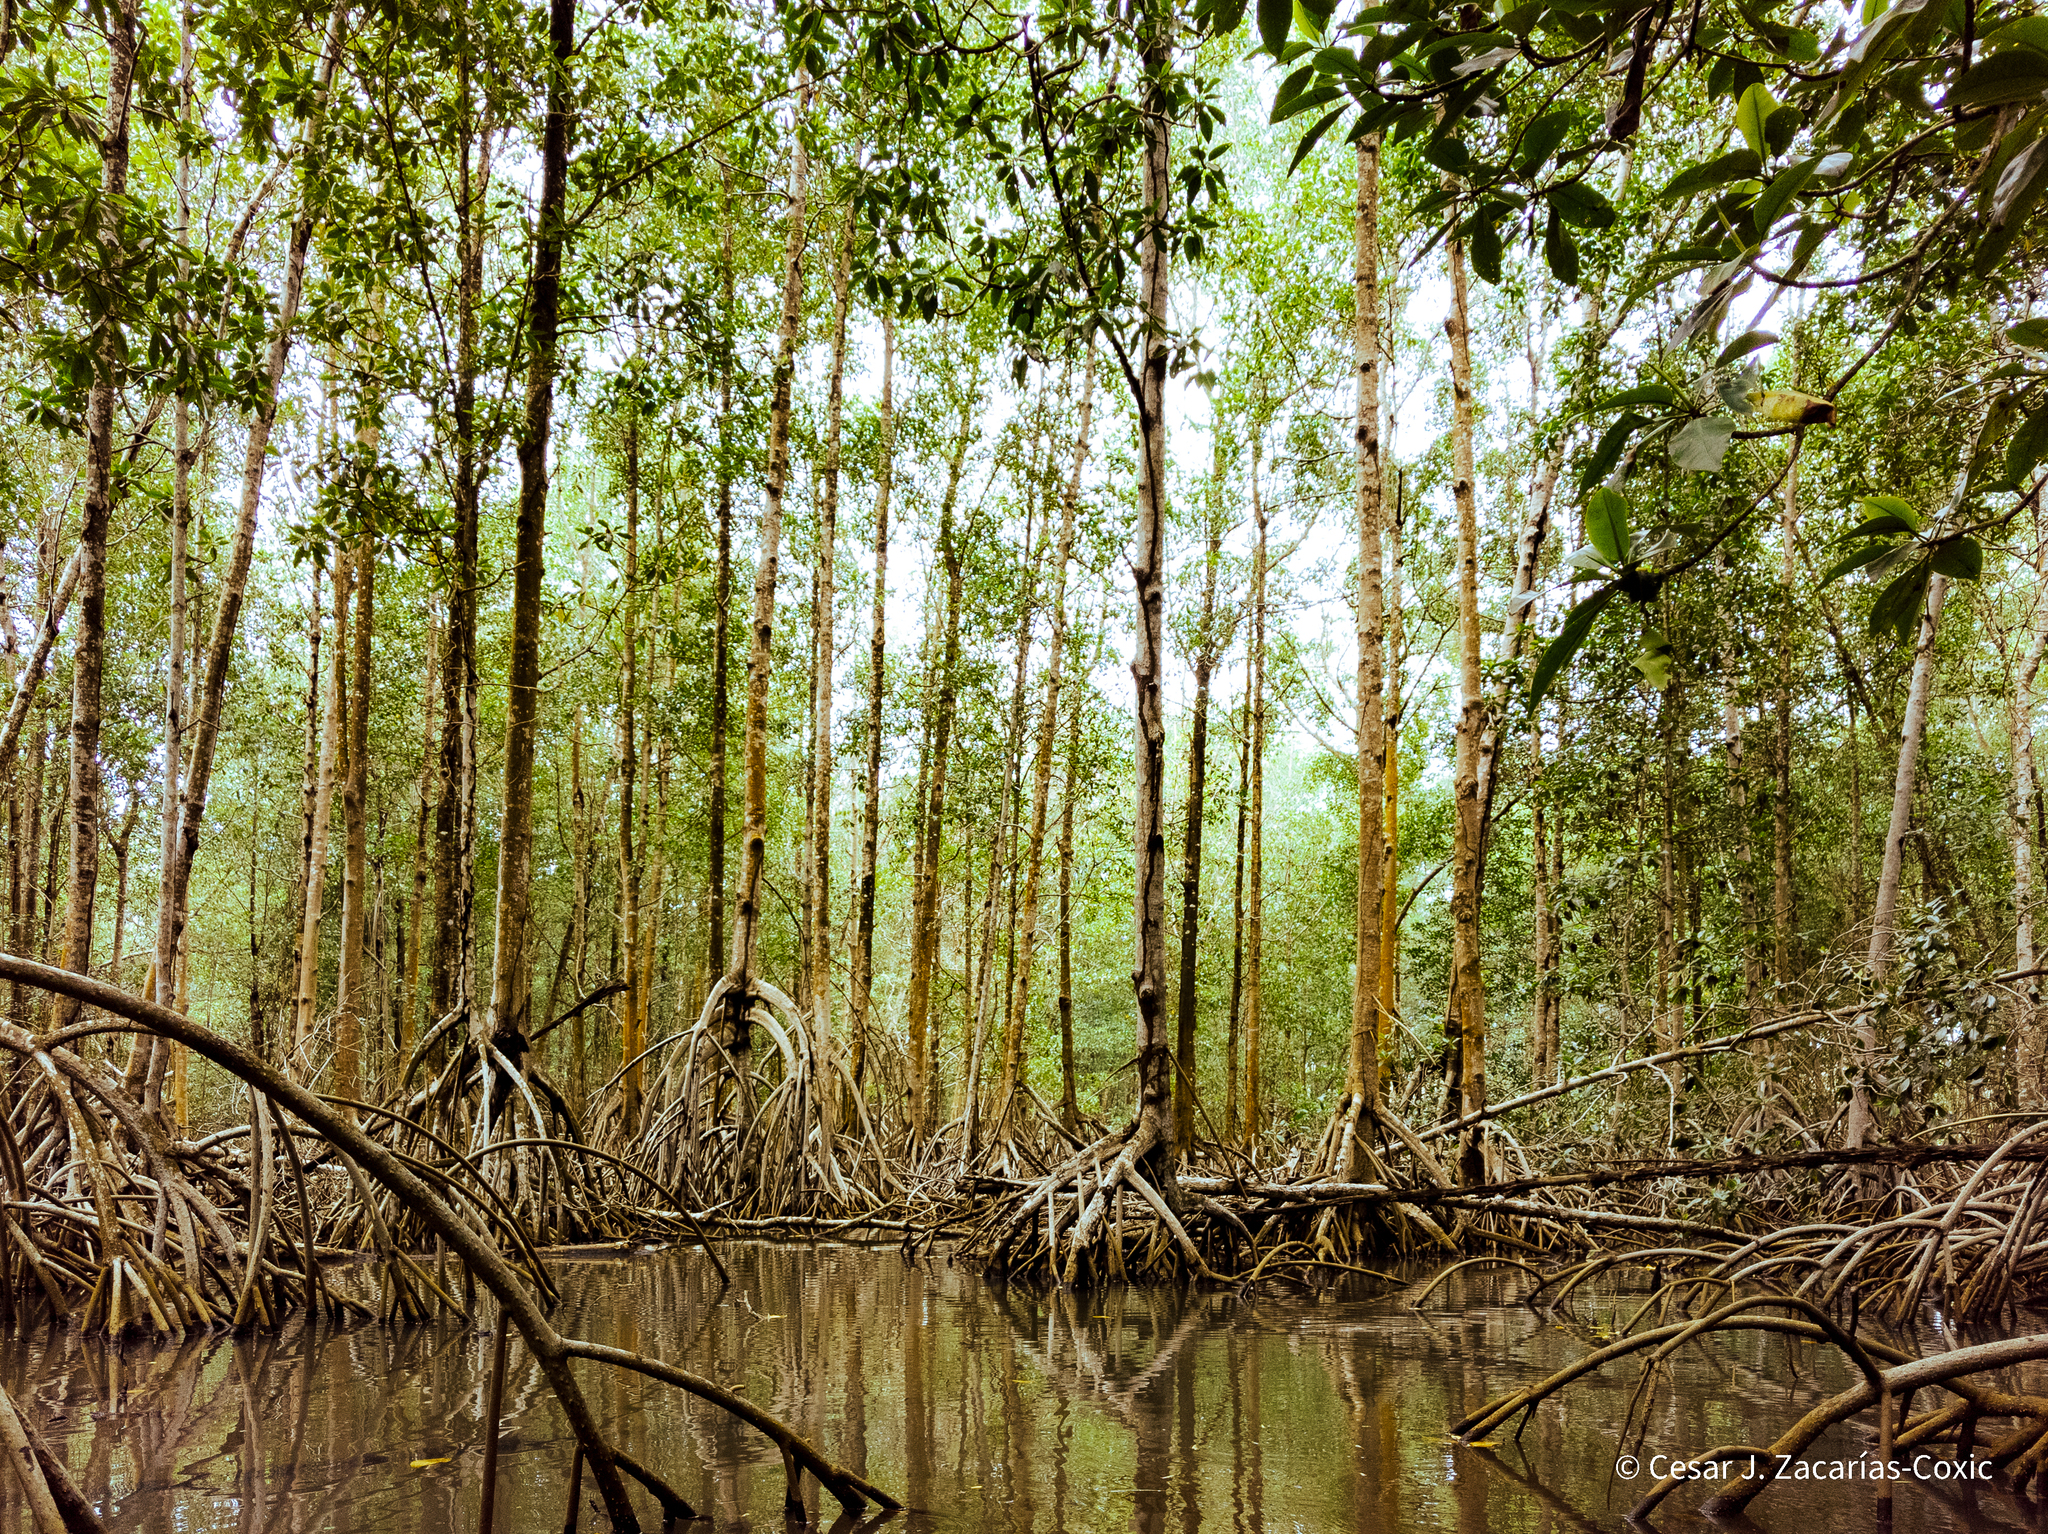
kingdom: Plantae
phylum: Tracheophyta
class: Magnoliopsida
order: Malpighiales
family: Rhizophoraceae
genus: Rhizophora
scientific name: Rhizophora mangle
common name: Red mangrove
